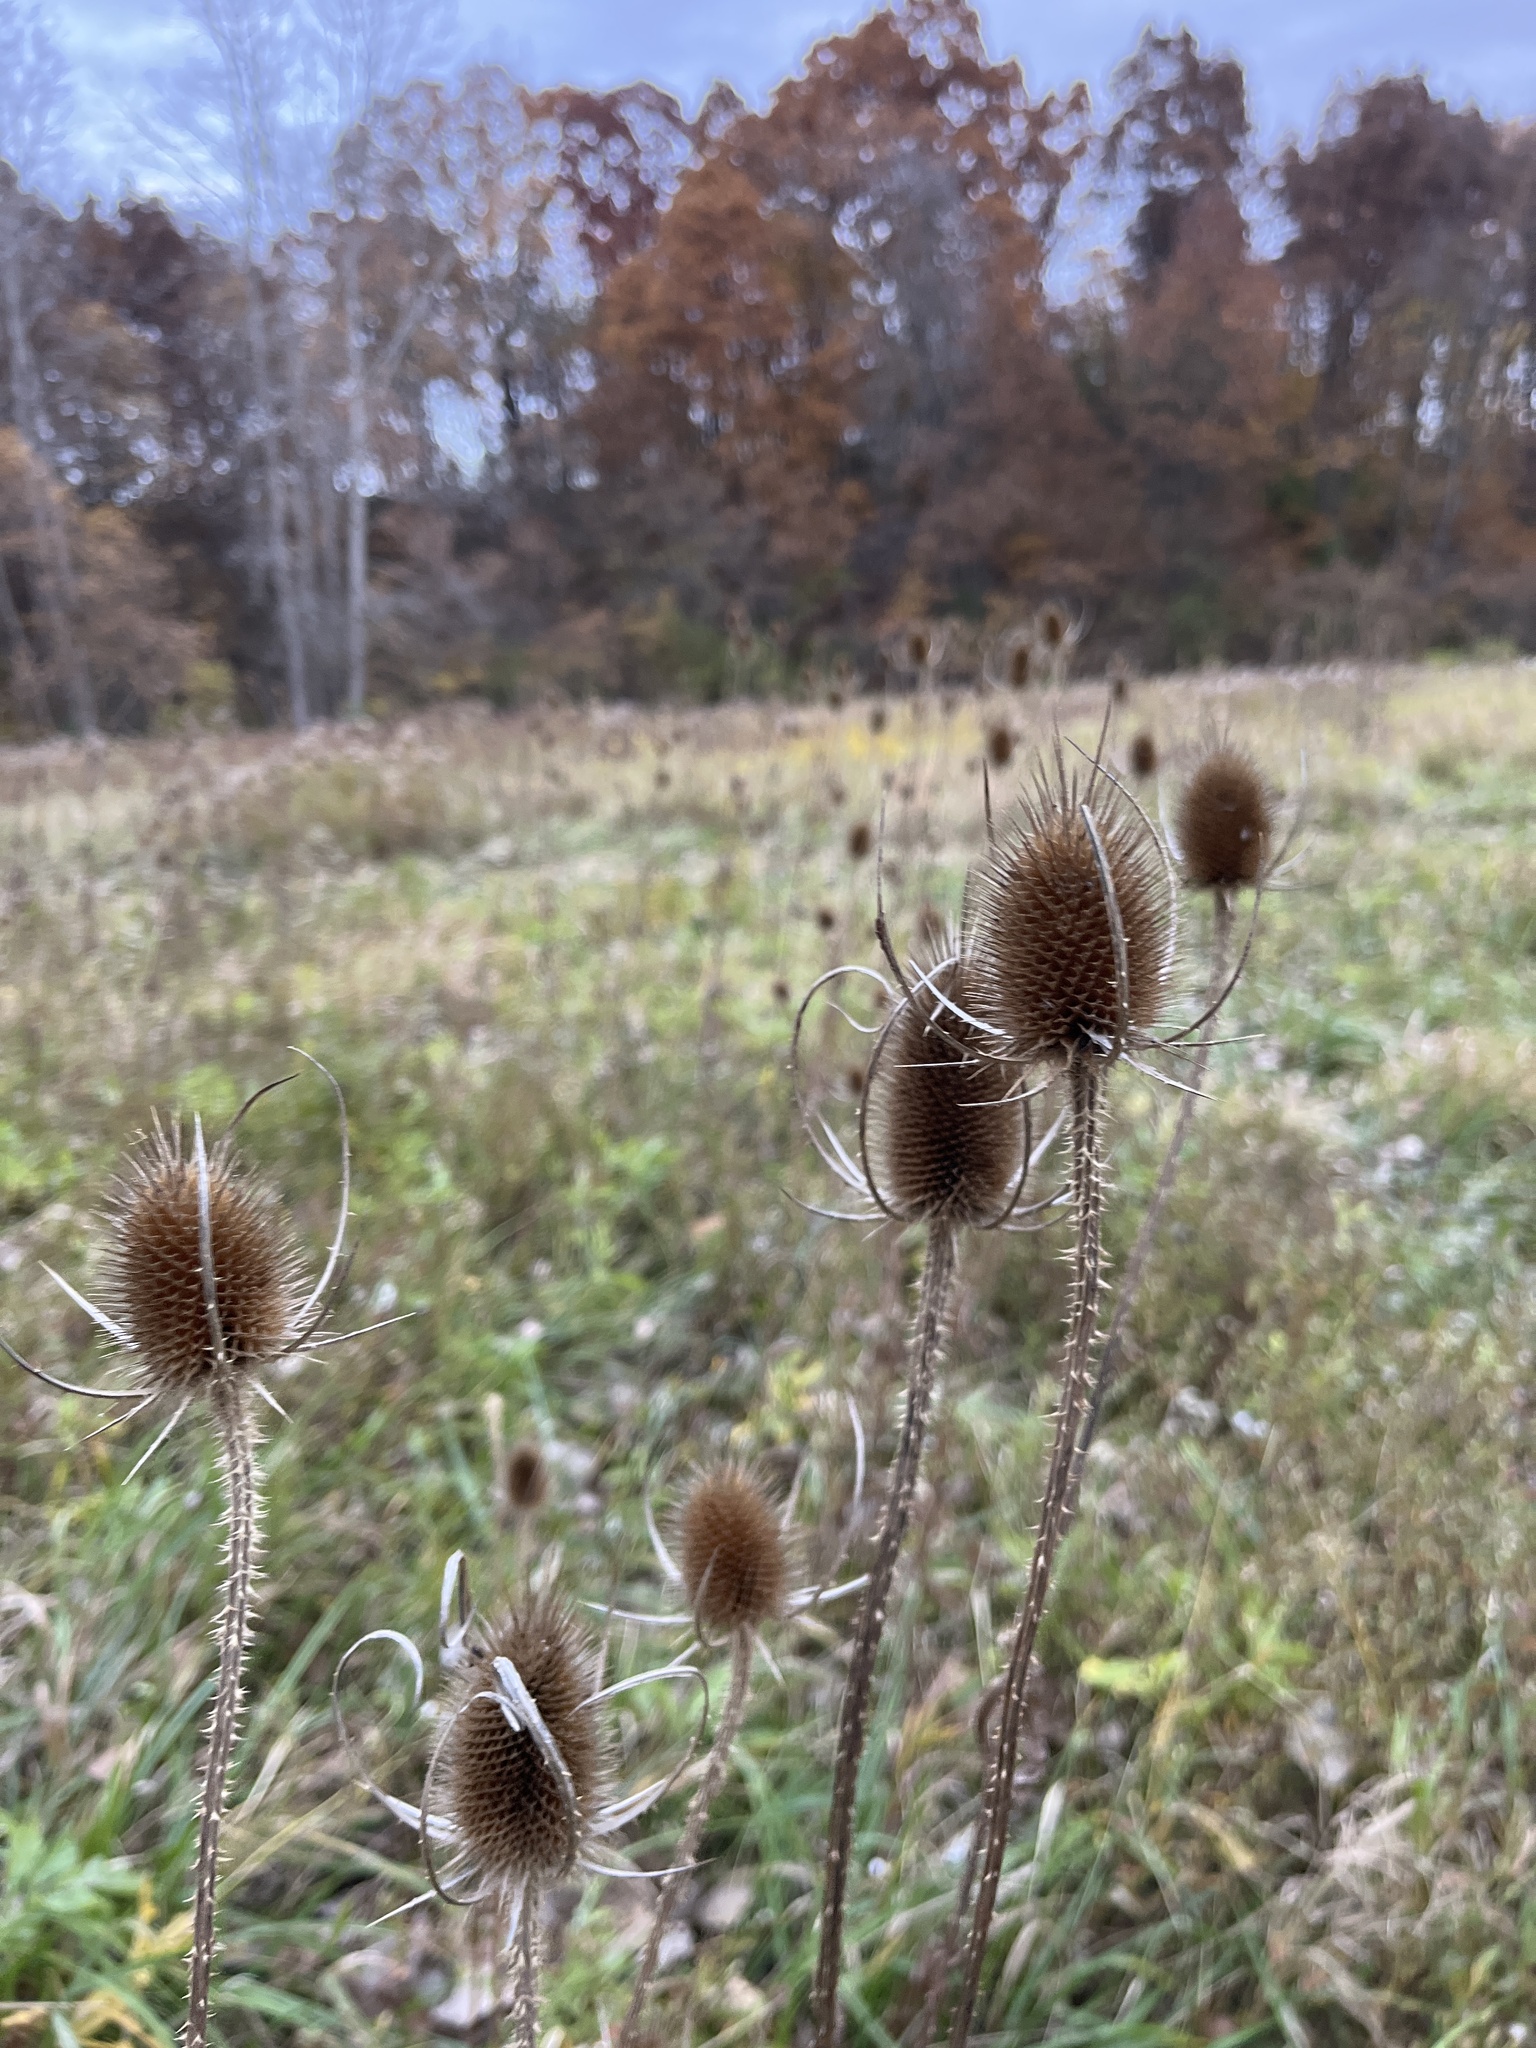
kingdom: Plantae
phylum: Tracheophyta
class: Magnoliopsida
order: Dipsacales
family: Caprifoliaceae
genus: Dipsacus
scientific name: Dipsacus fullonum
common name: Teasel
